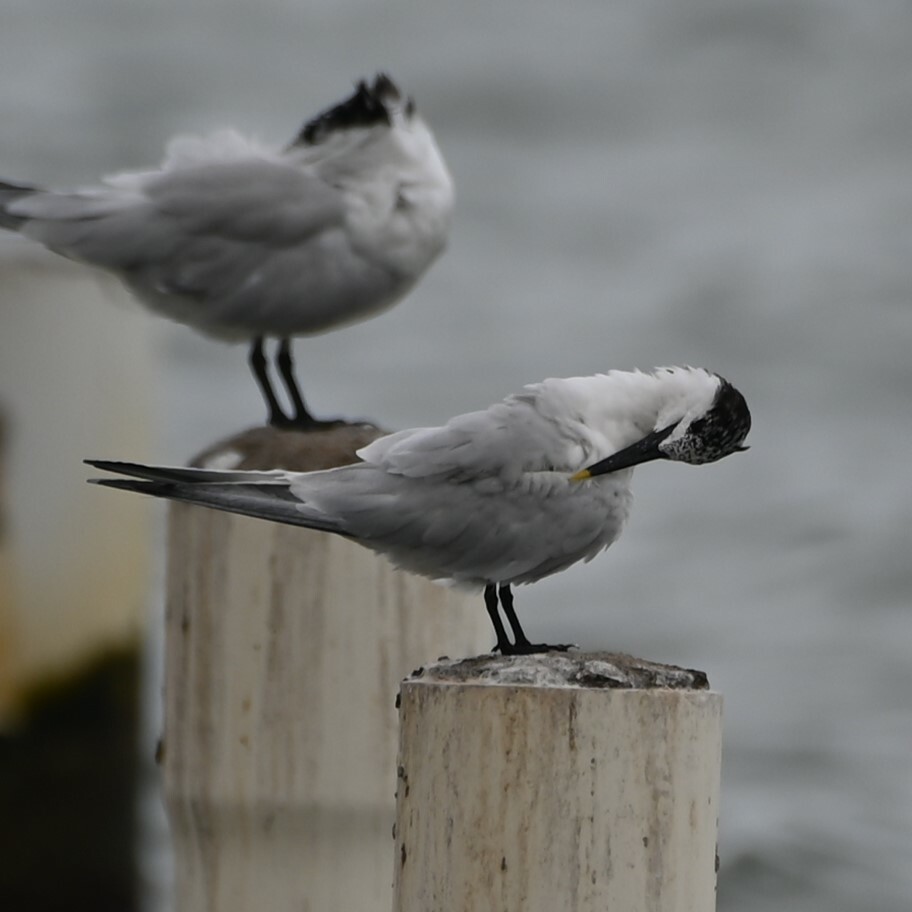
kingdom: Animalia
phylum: Chordata
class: Aves
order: Charadriiformes
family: Laridae
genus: Thalasseus
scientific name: Thalasseus sandvicensis
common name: Sandwich tern
